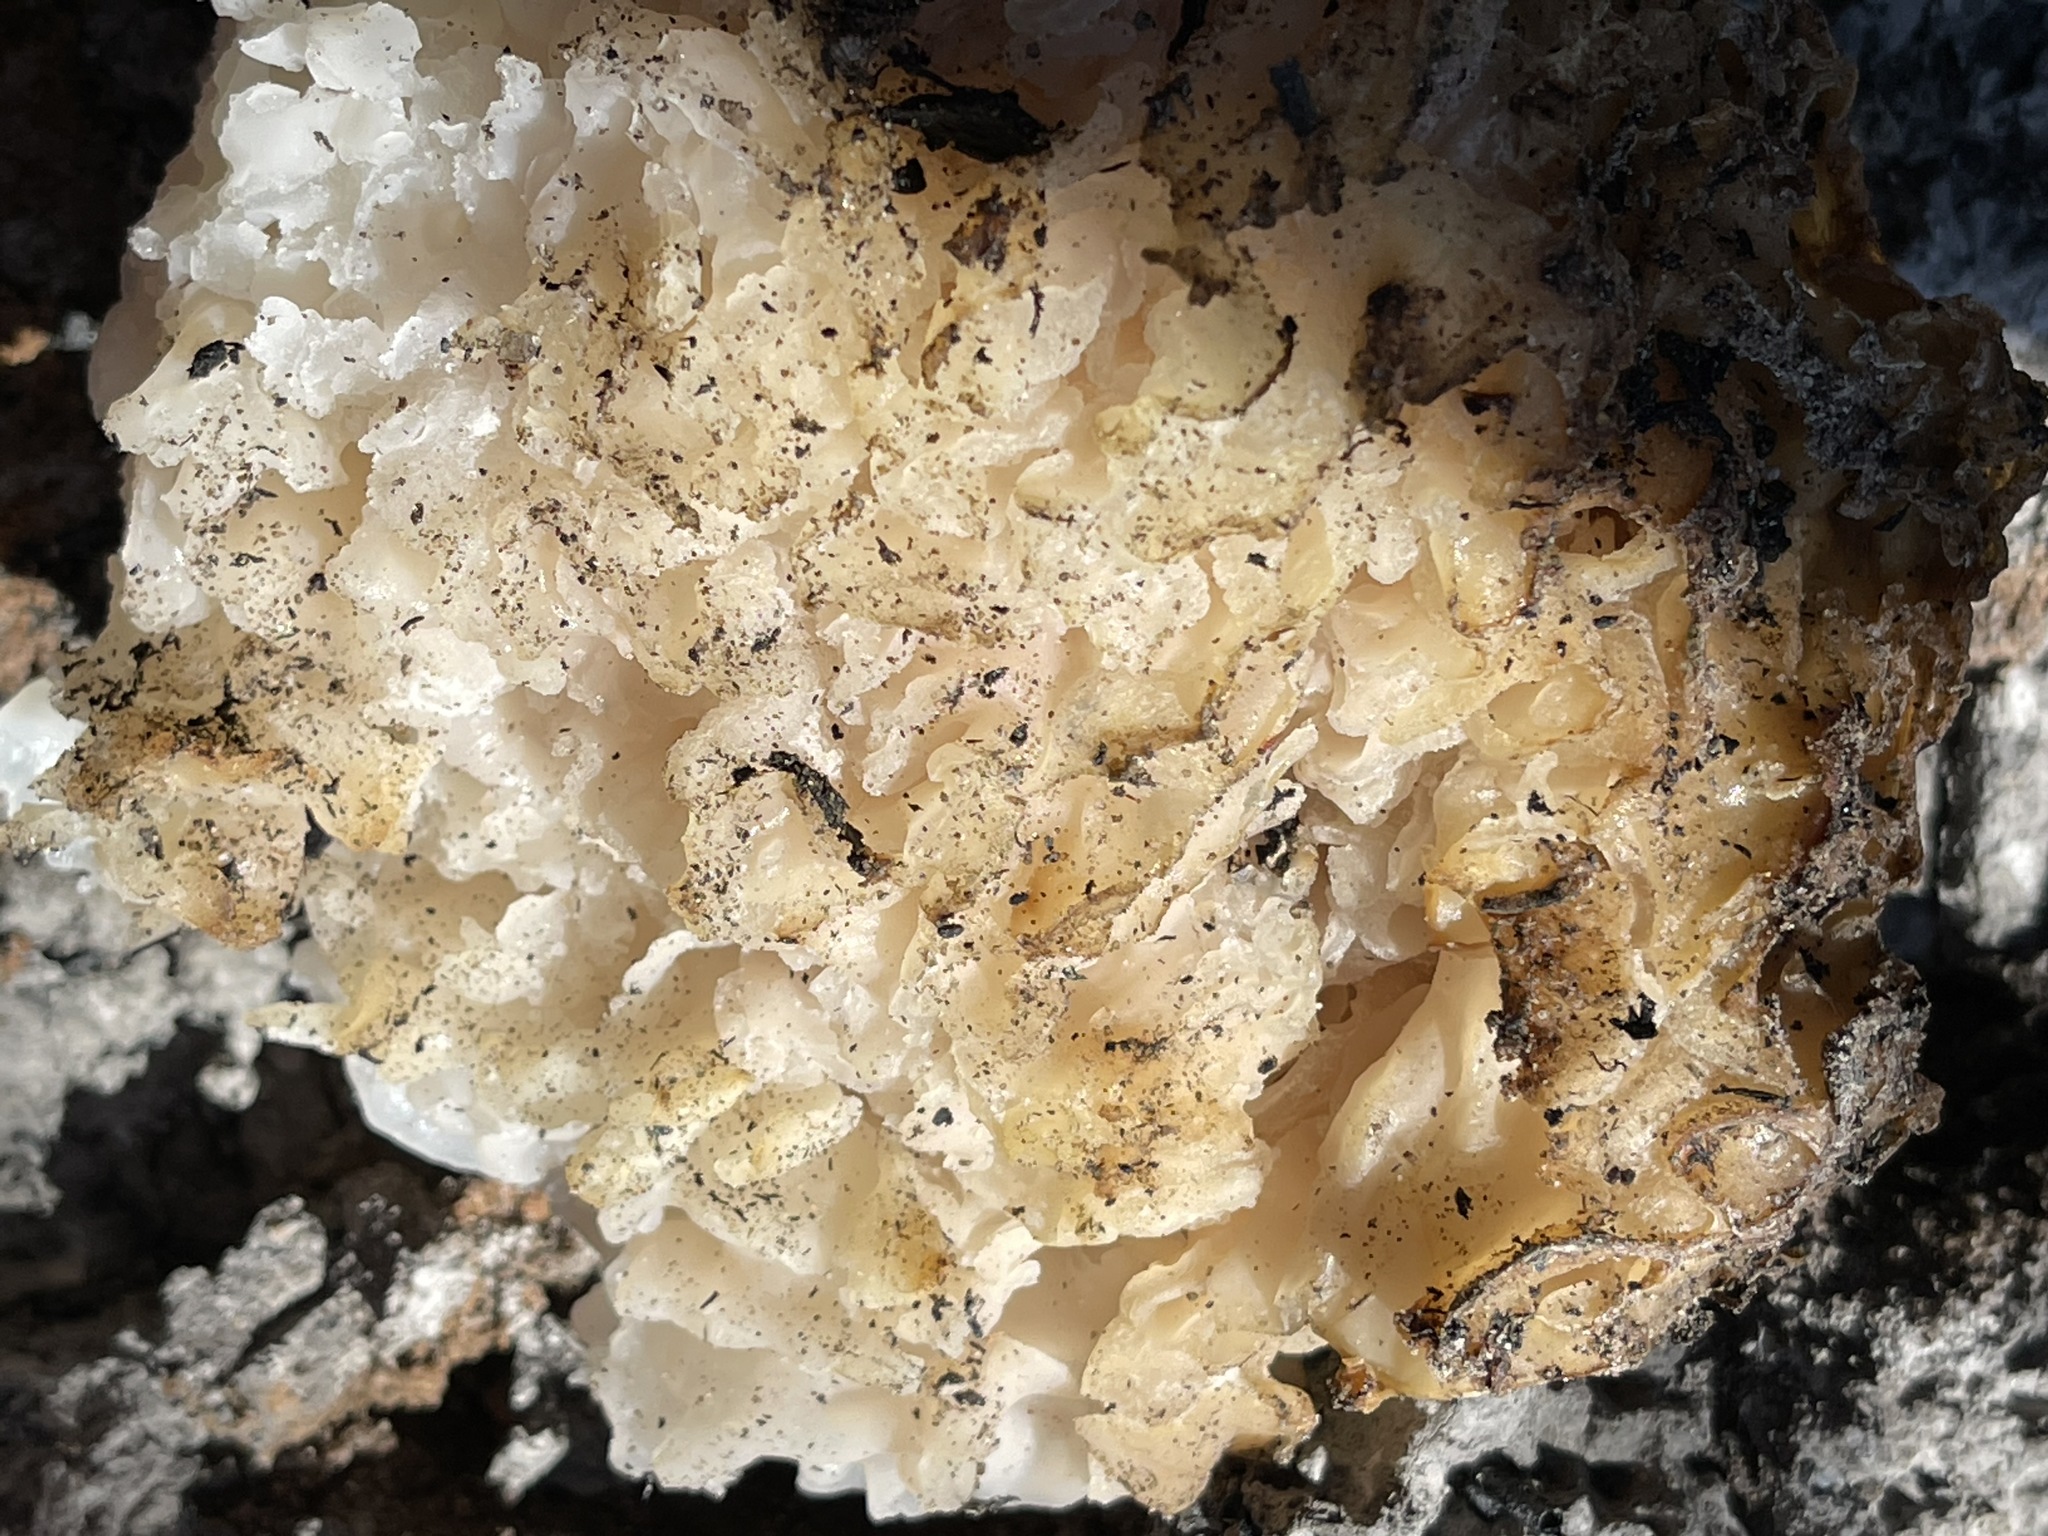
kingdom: Fungi
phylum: Ascomycota
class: Pezizomycetes
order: Pezizales
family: Pezizaceae
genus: Daleomyces
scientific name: Daleomyces phillipsii
